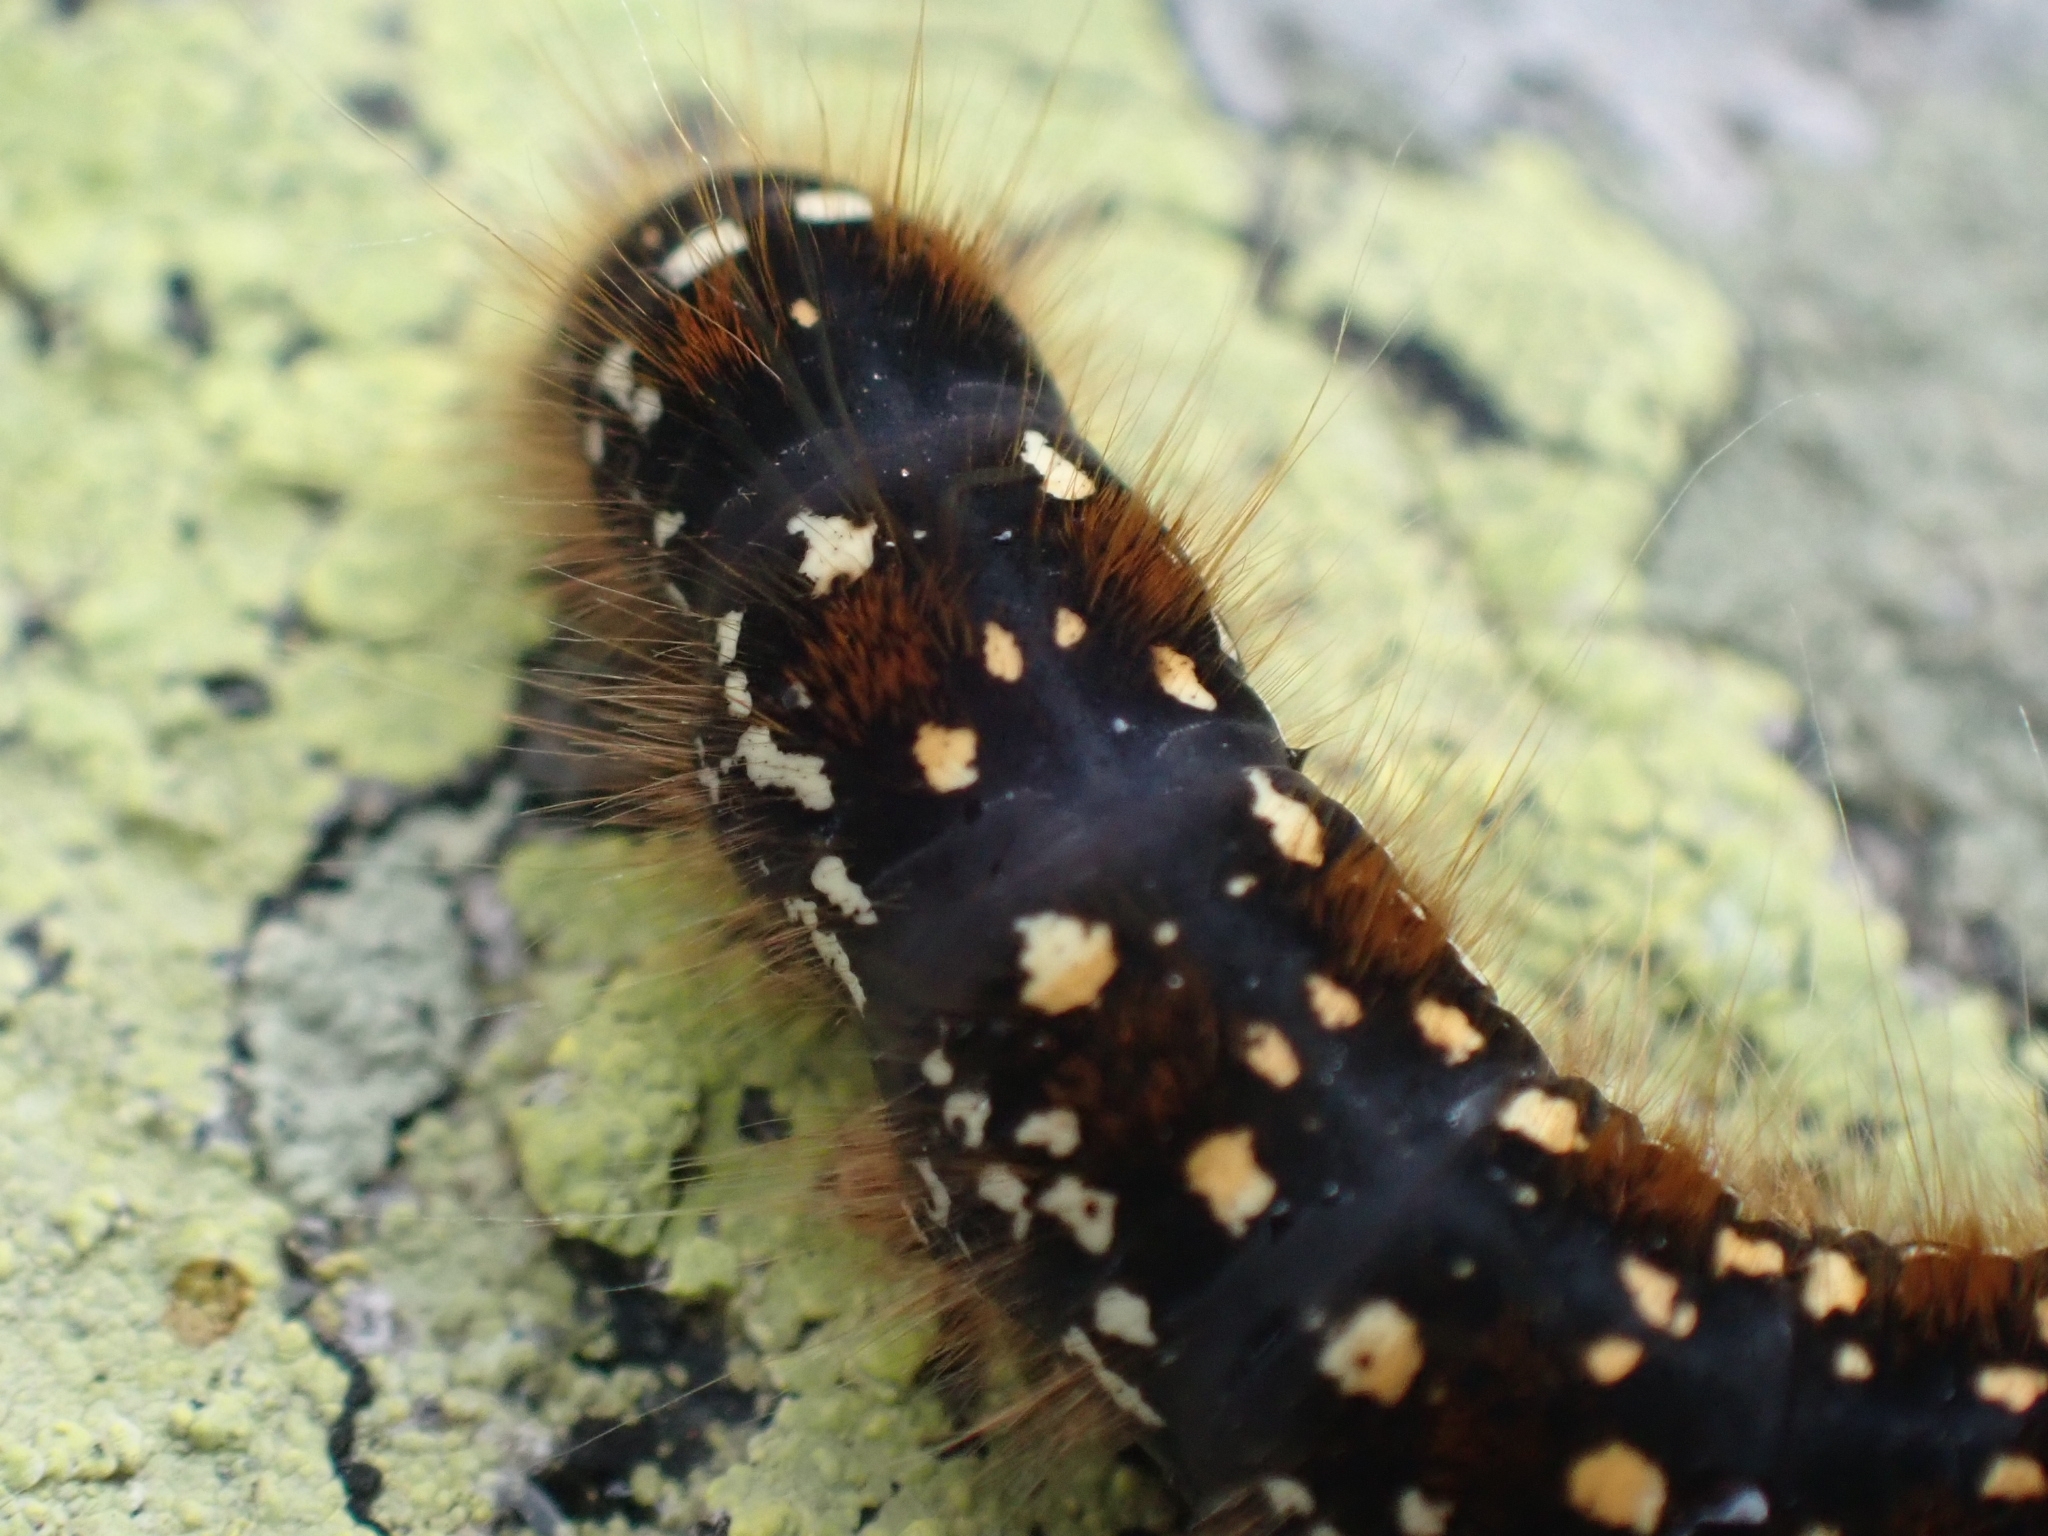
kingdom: Animalia
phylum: Arthropoda
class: Insecta
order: Lepidoptera
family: Lasiocampidae
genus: Eriogaster
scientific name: Eriogaster arbusculae
